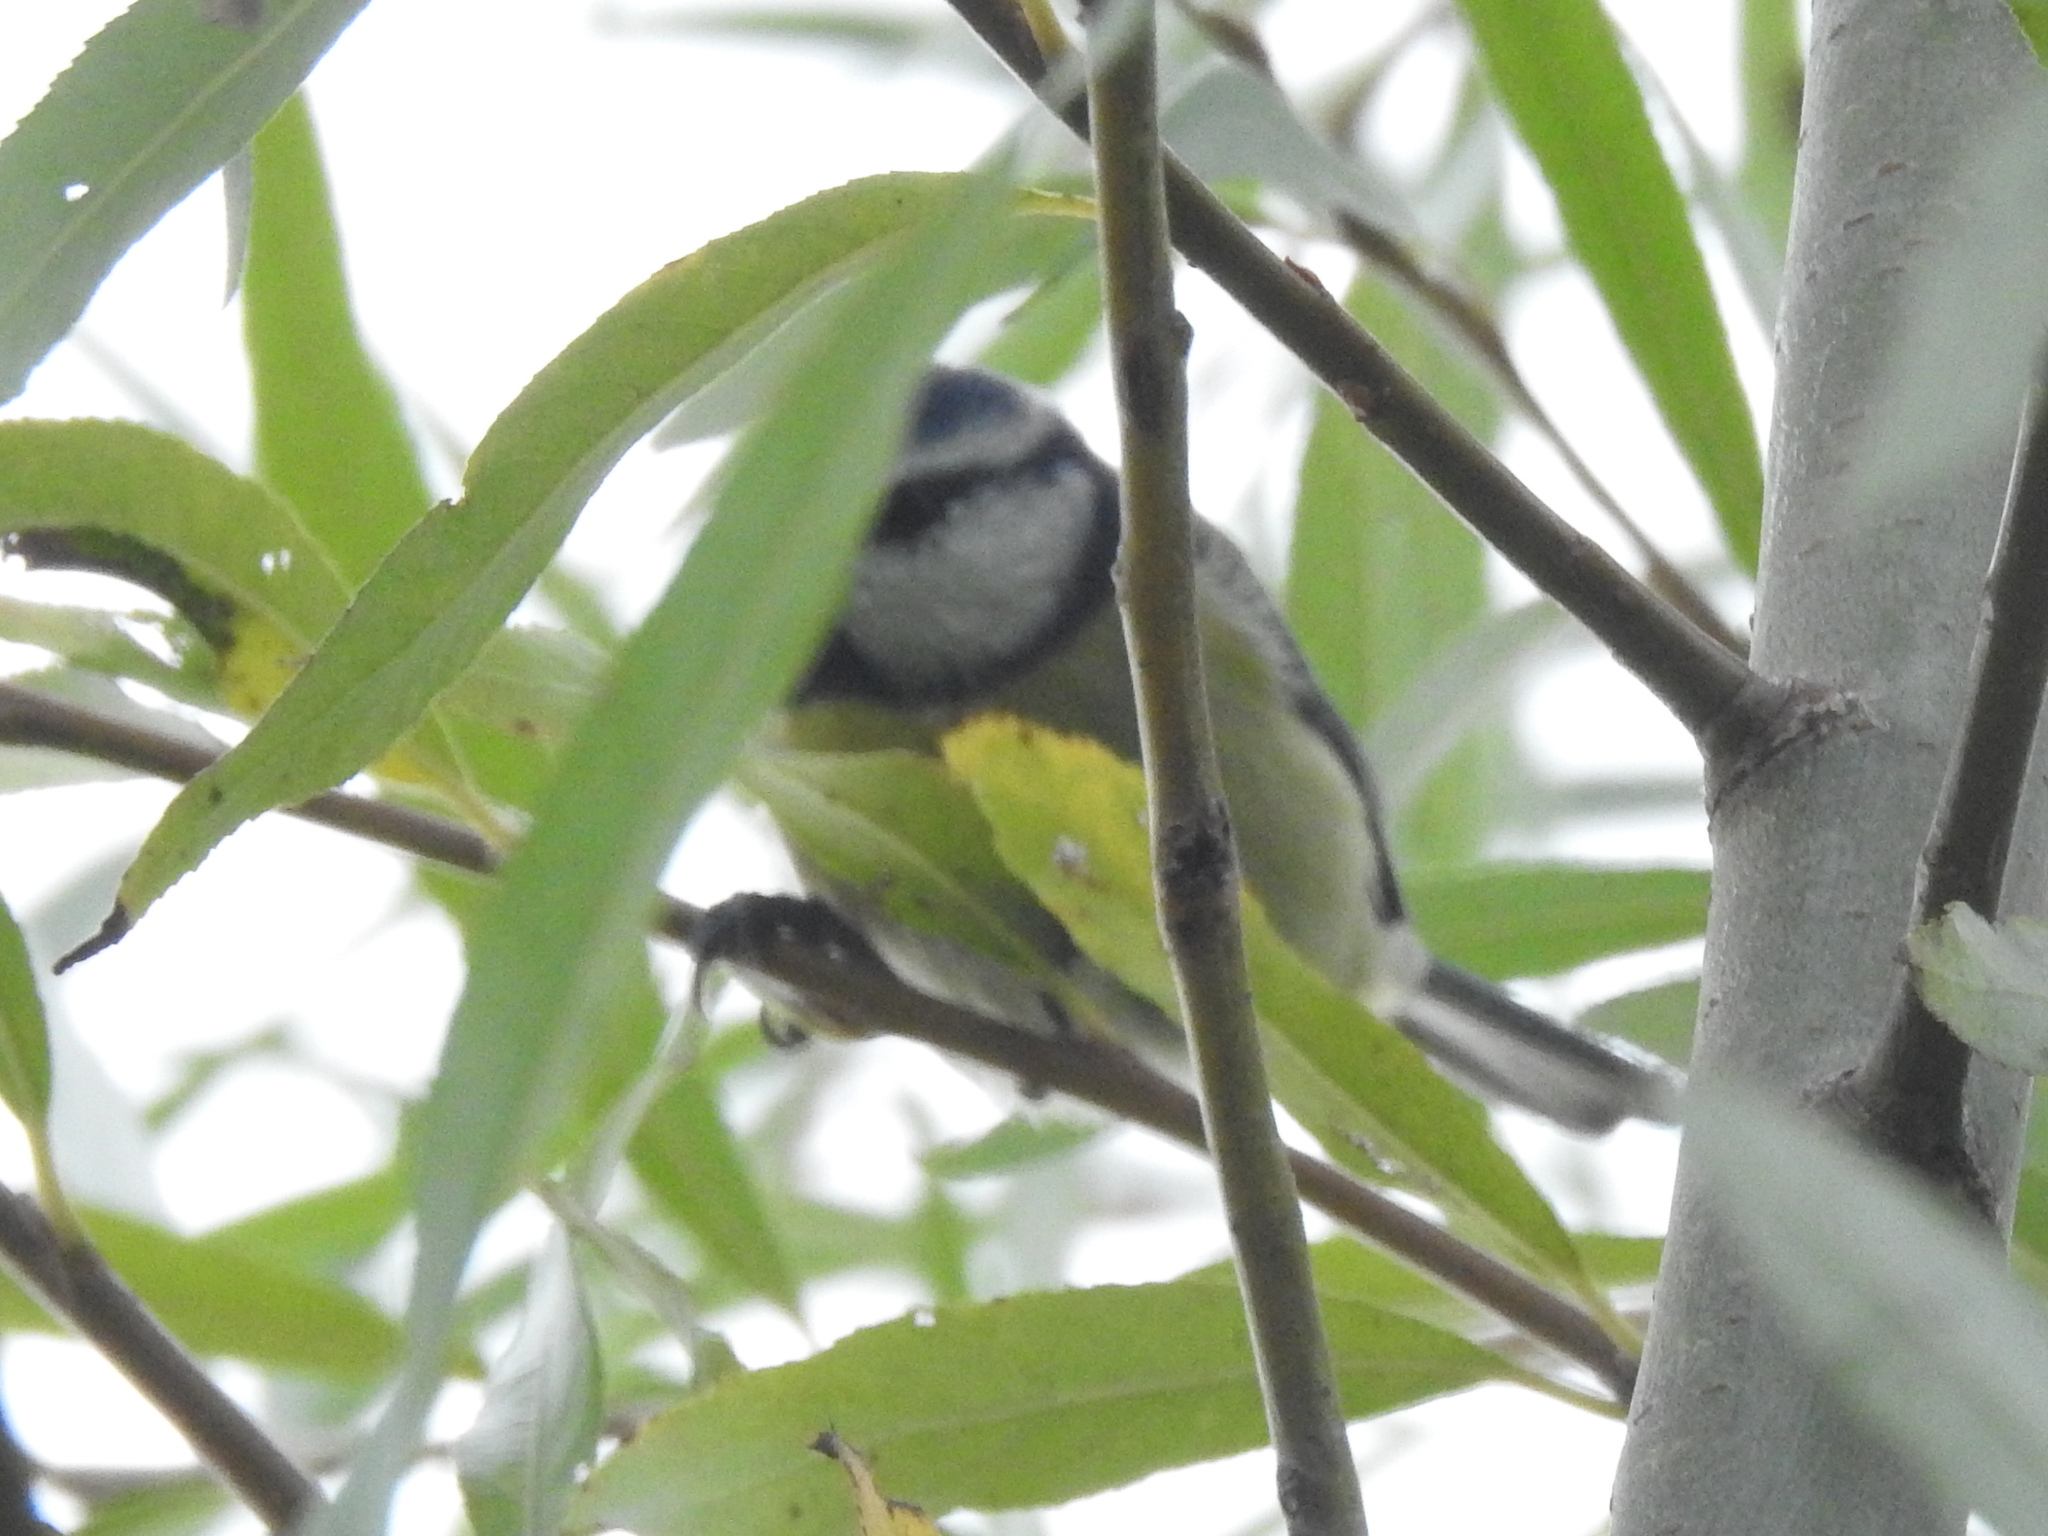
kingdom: Animalia
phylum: Chordata
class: Aves
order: Passeriformes
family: Paridae
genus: Cyanistes
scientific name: Cyanistes caeruleus
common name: Eurasian blue tit
